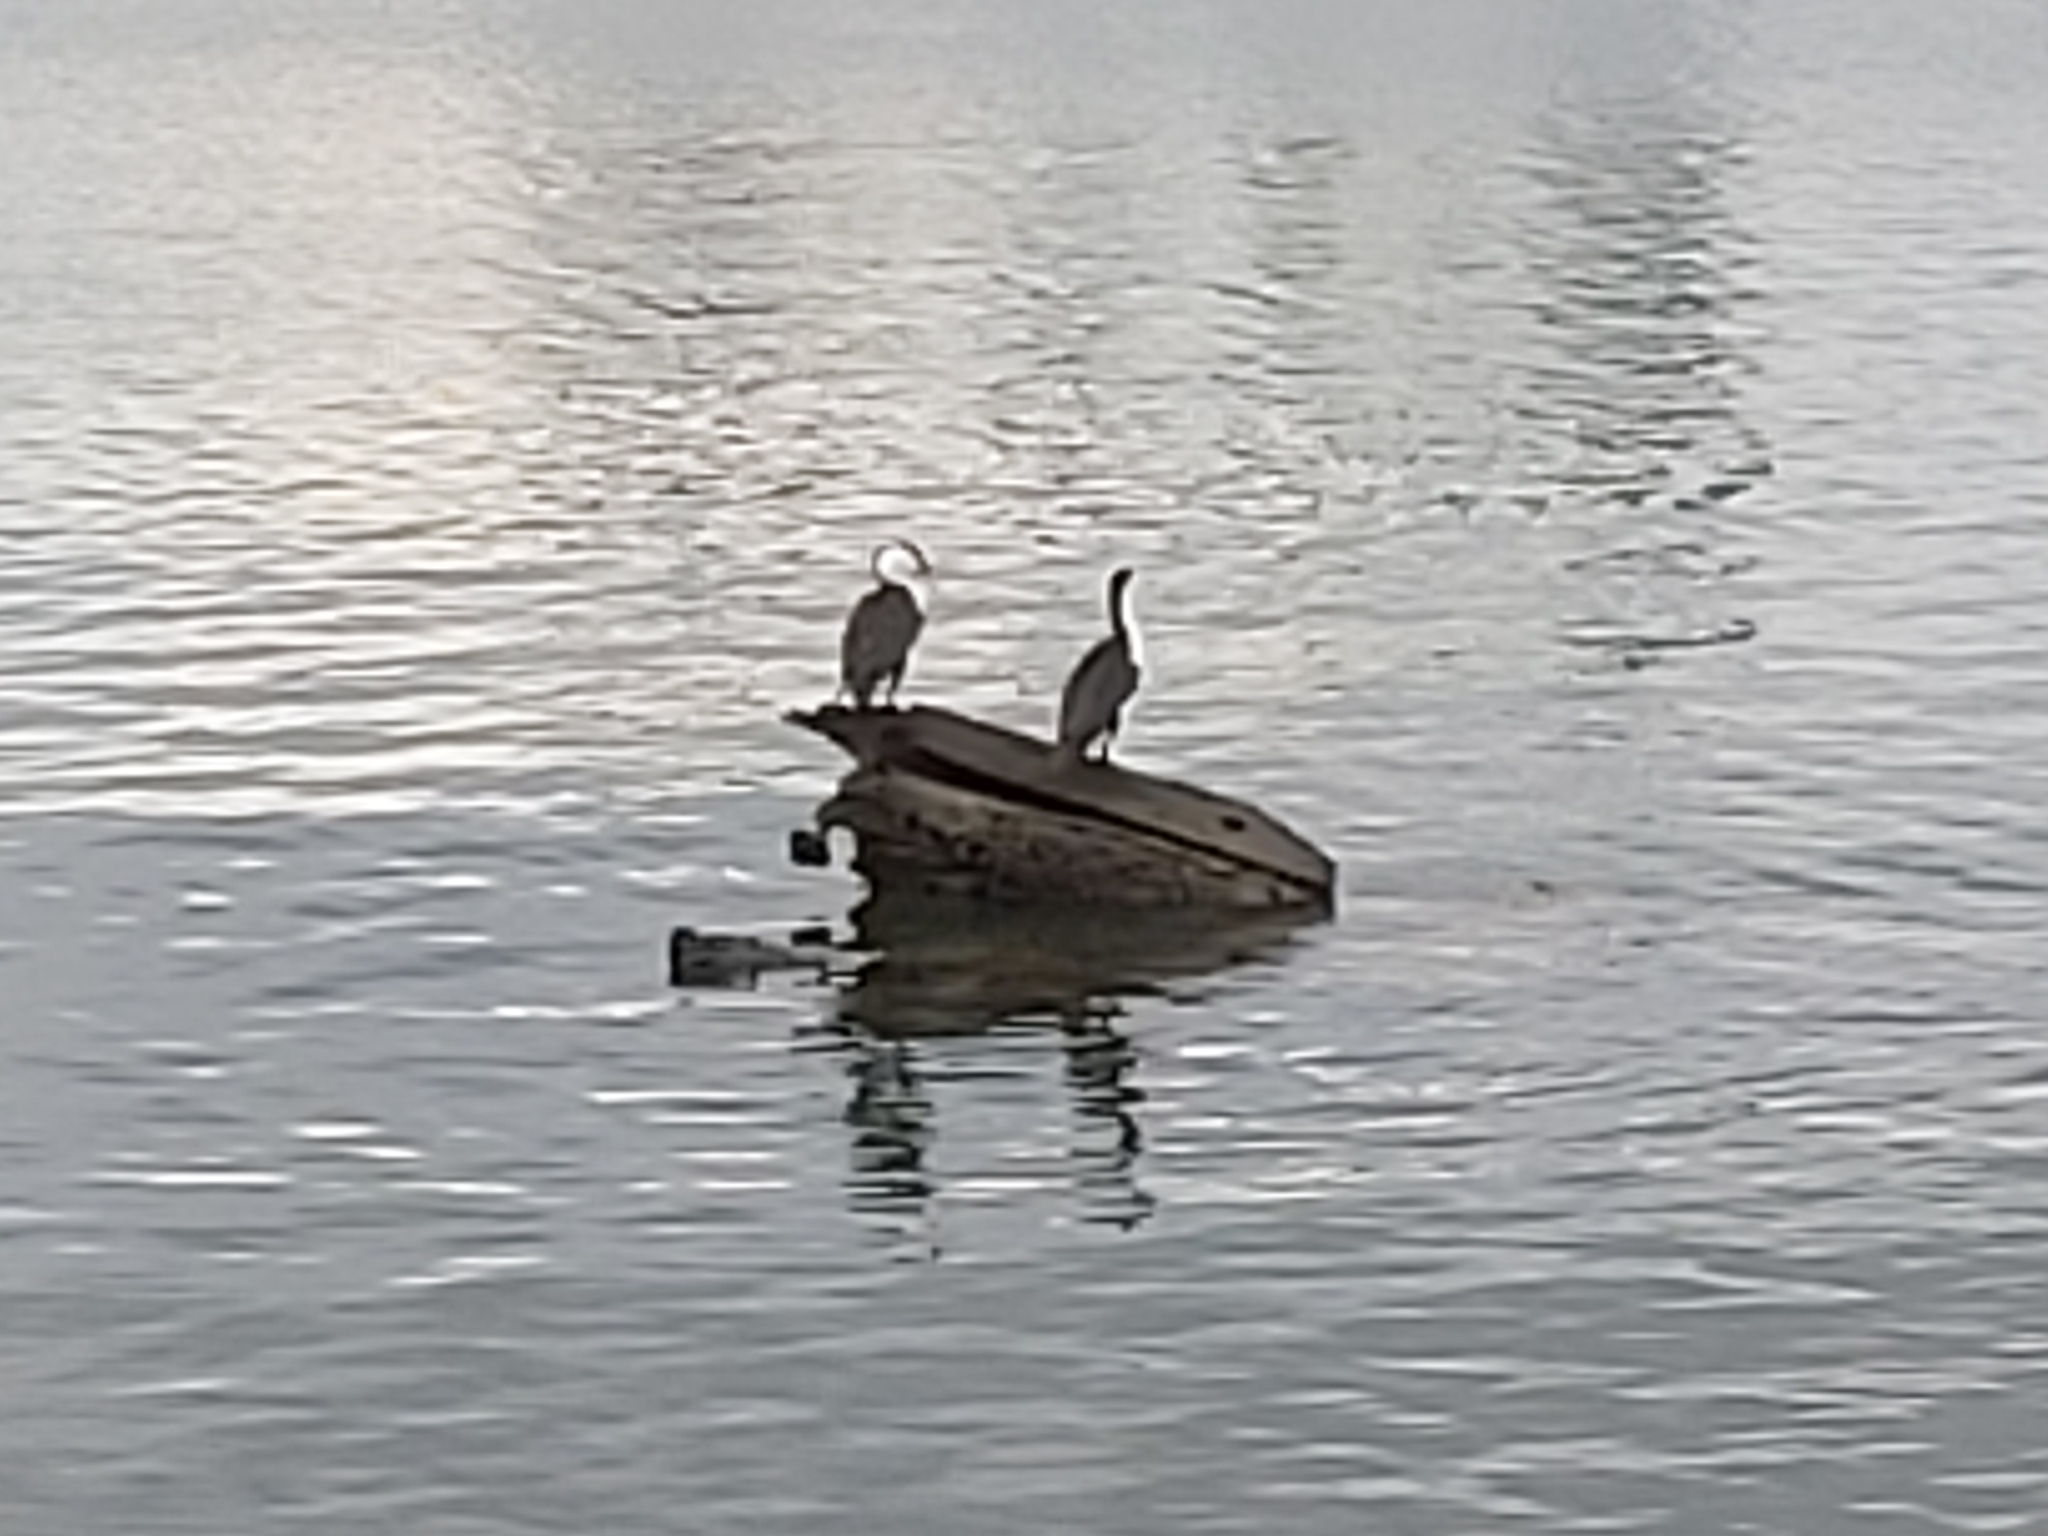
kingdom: Animalia
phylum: Chordata
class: Aves
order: Suliformes
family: Phalacrocoracidae
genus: Phalacrocorax
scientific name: Phalacrocorax varius
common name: Pied cormorant
